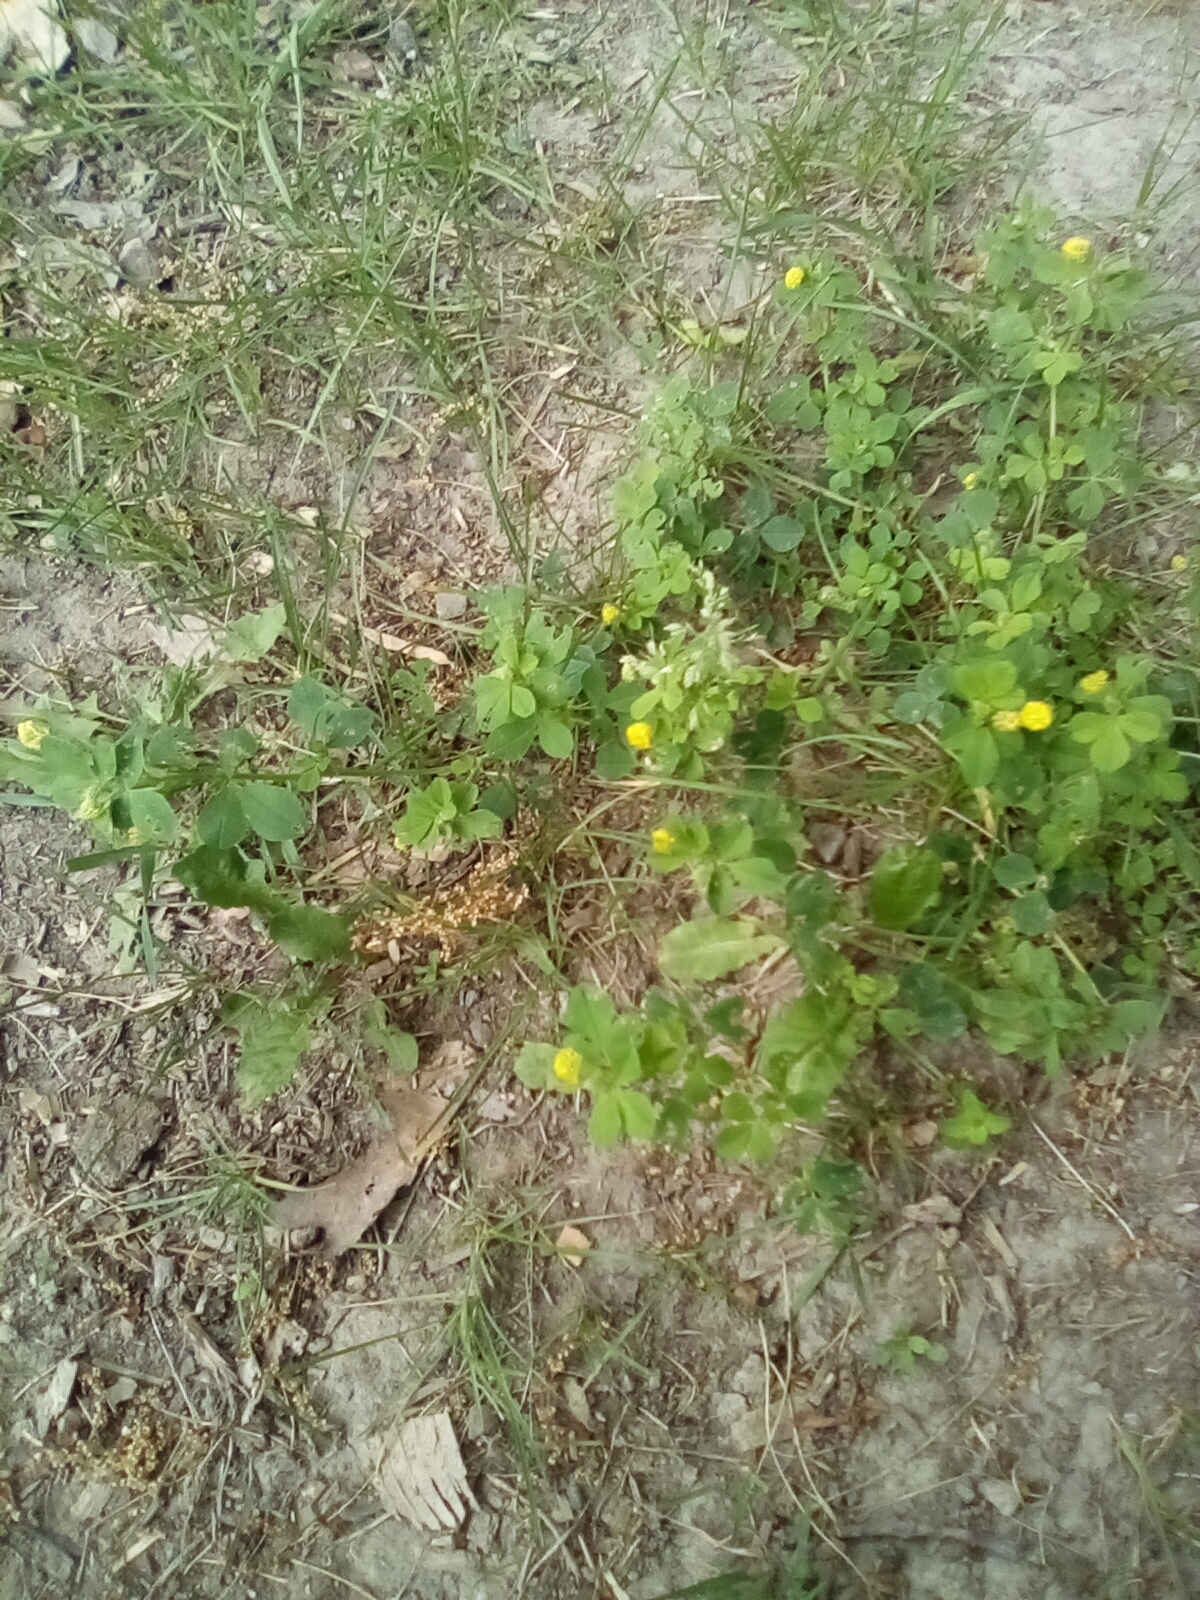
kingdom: Plantae
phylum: Tracheophyta
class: Magnoliopsida
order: Fabales
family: Fabaceae
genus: Medicago
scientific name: Medicago lupulina
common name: Black medick
